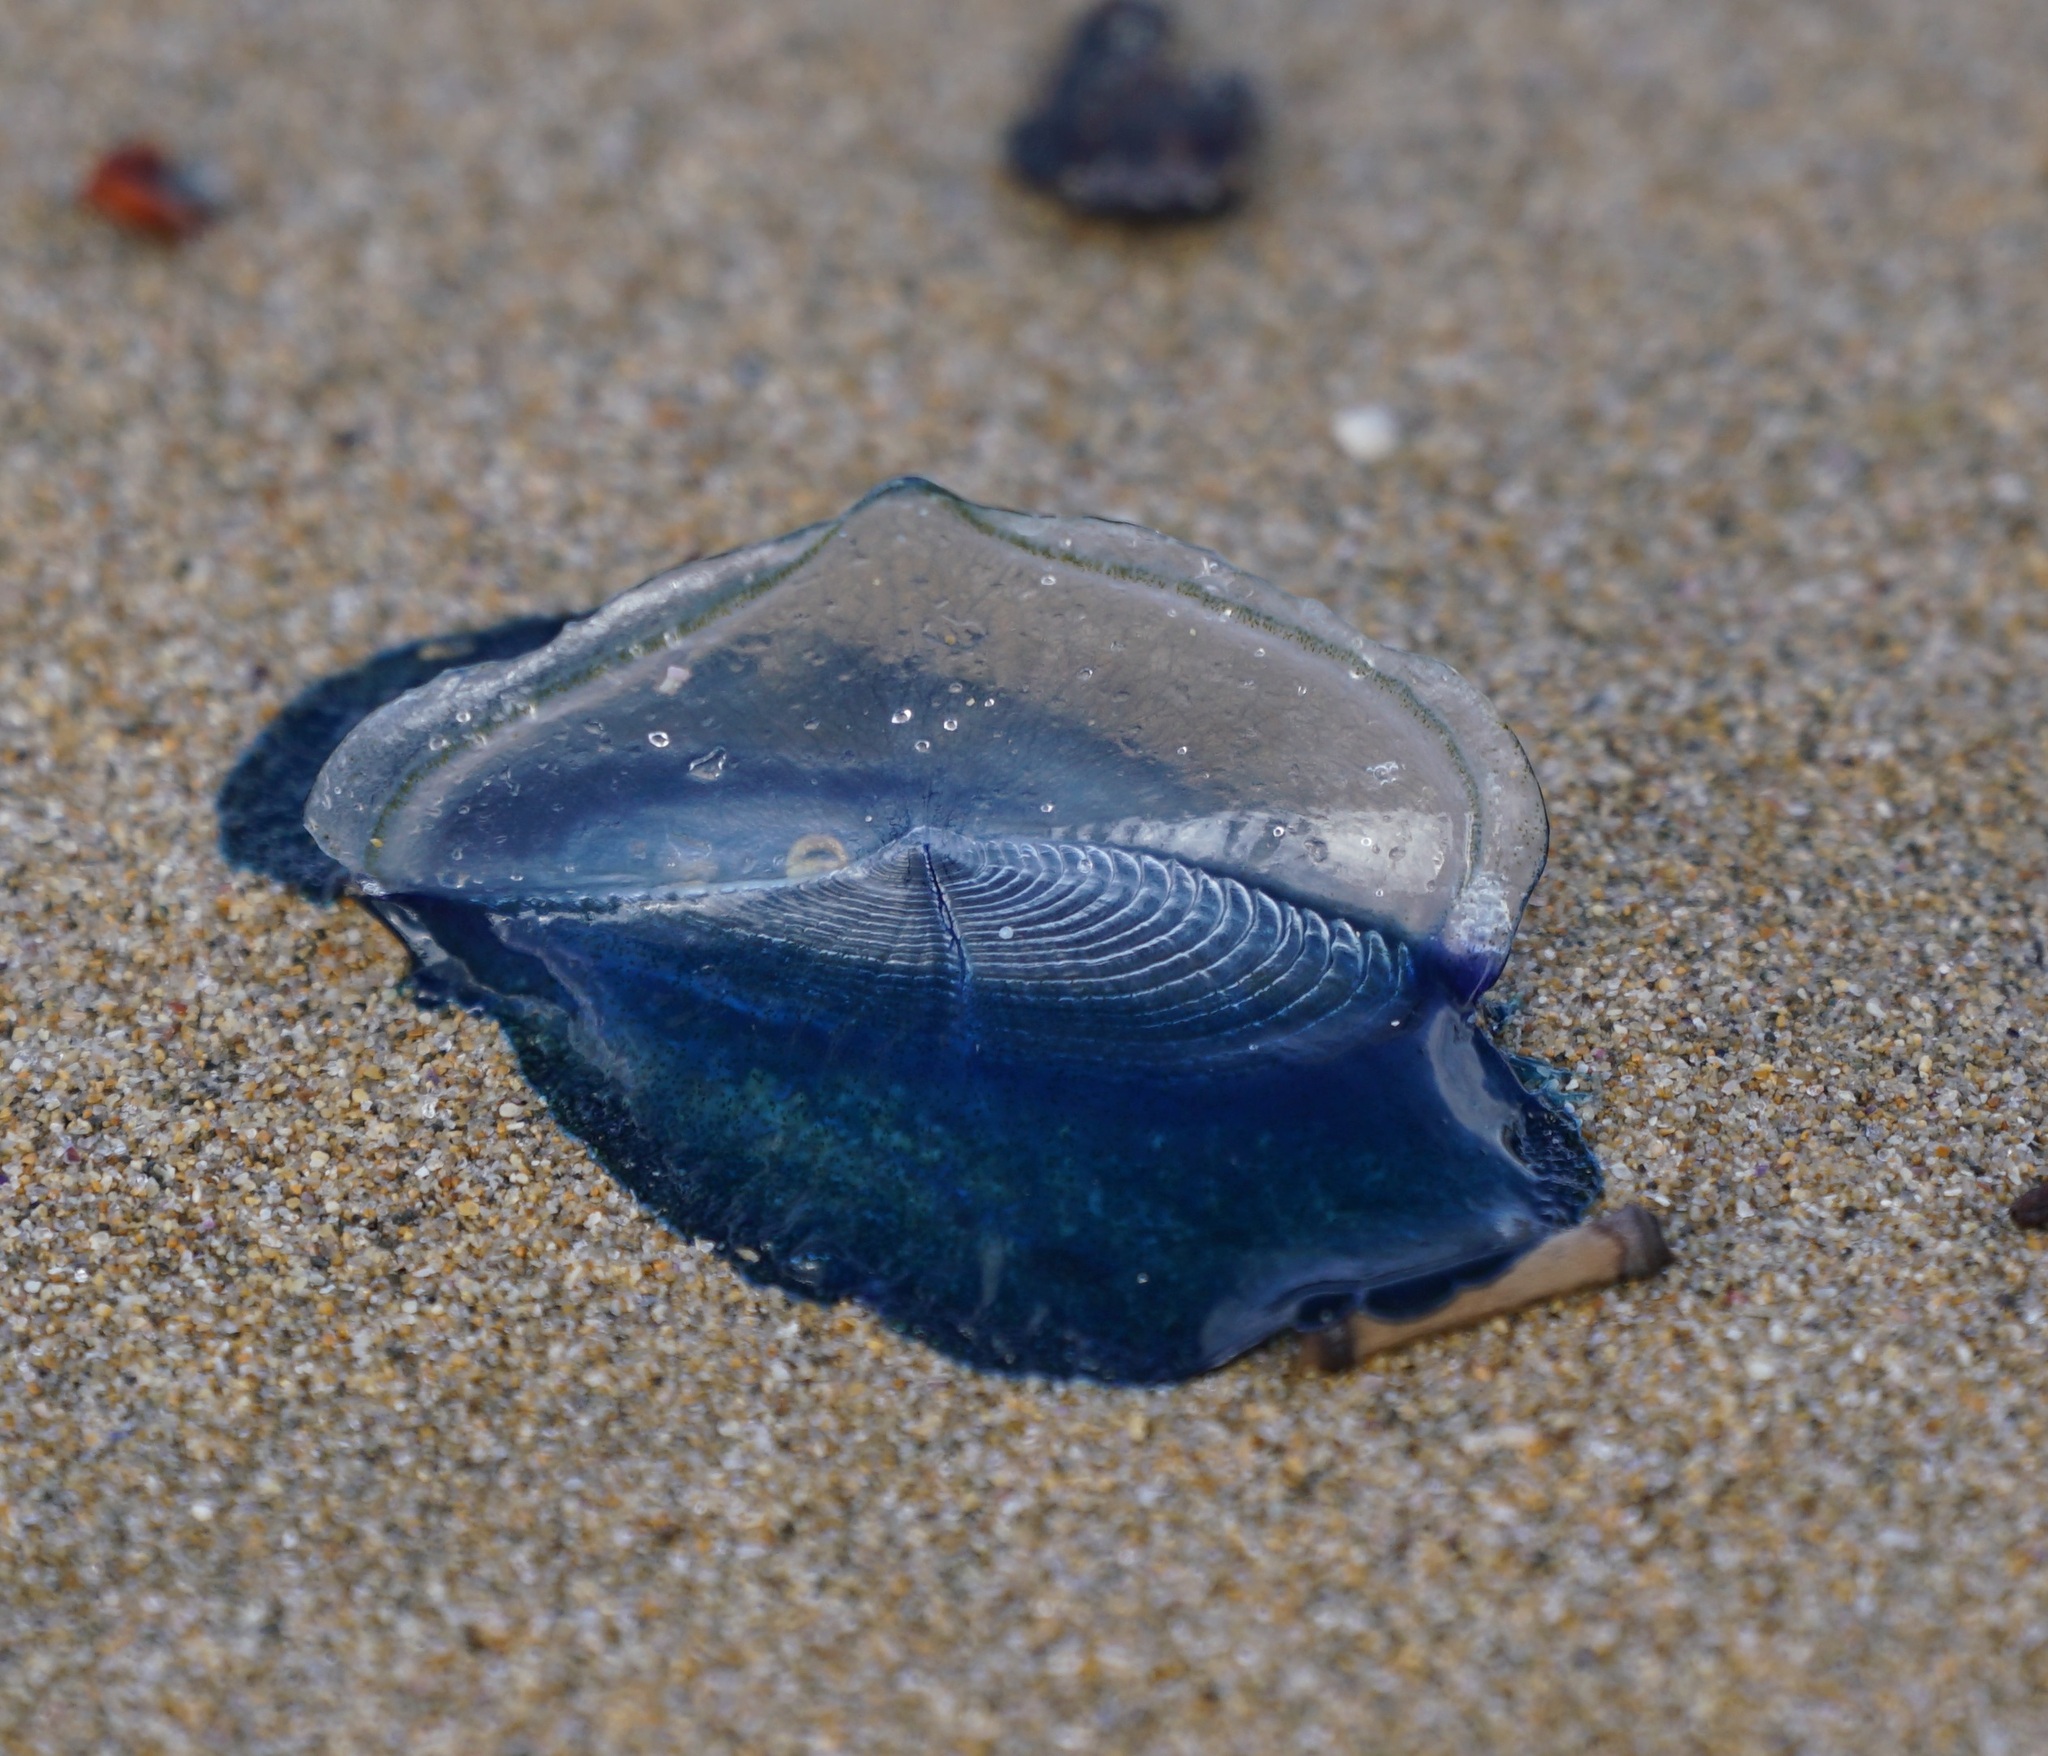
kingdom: Animalia
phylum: Cnidaria
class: Hydrozoa
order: Anthoathecata
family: Porpitidae
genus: Velella
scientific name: Velella velella
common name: By-the-wind-sailor
